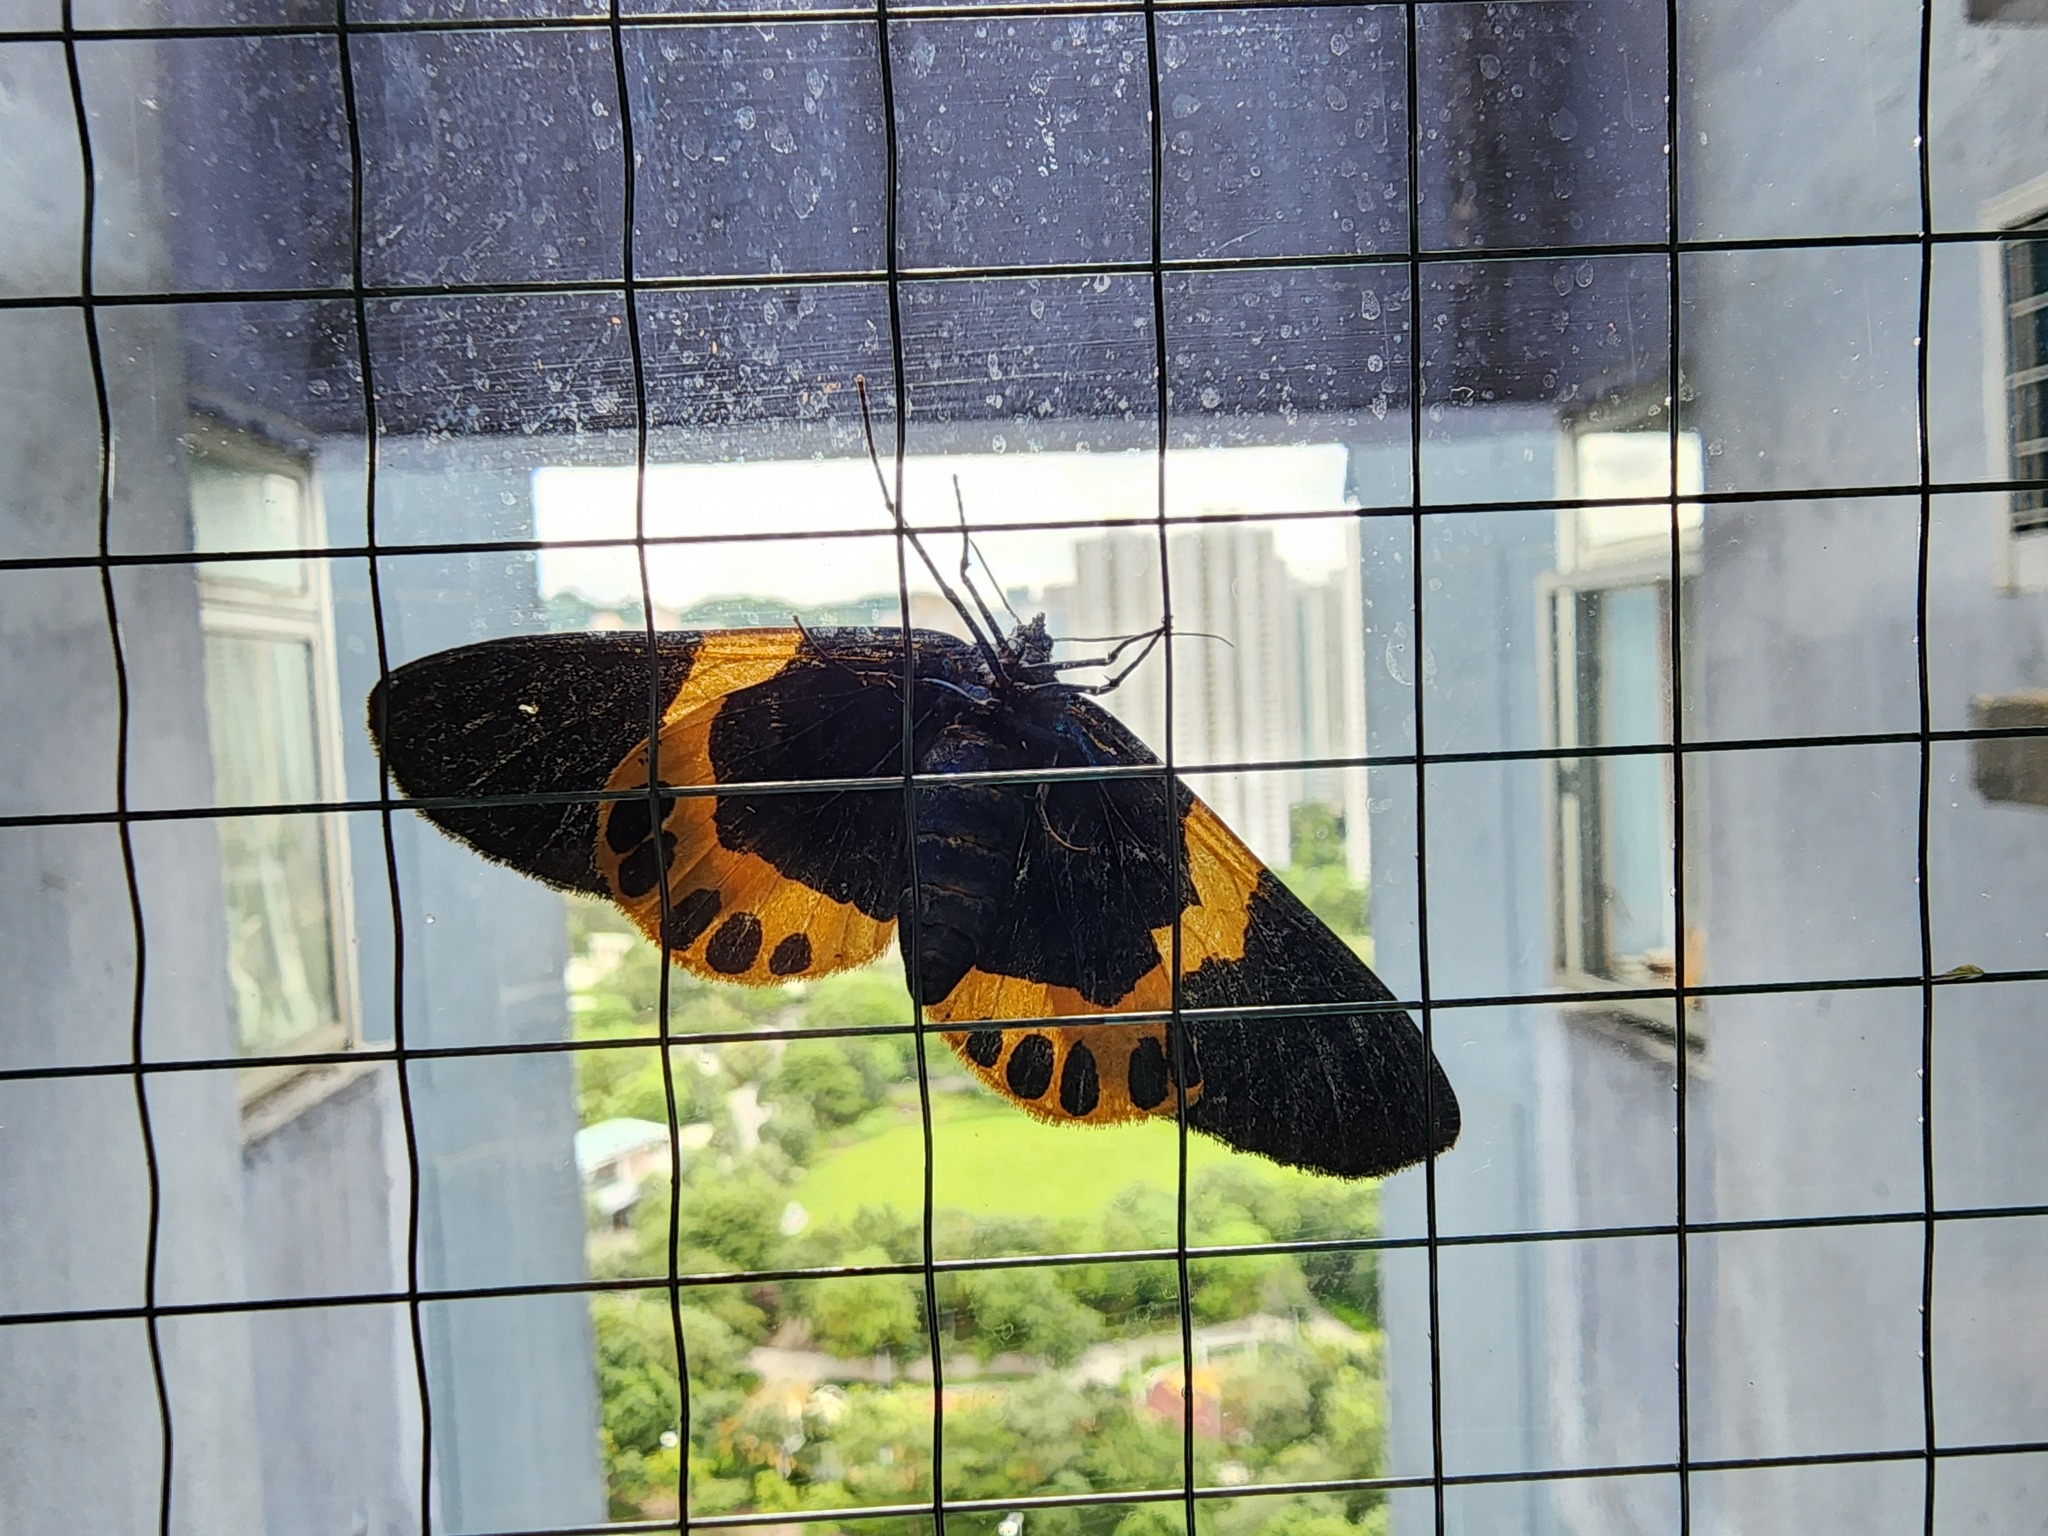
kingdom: Animalia
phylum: Arthropoda
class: Insecta
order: Lepidoptera
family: Geometridae
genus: Milionia
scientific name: Milionia basalis
